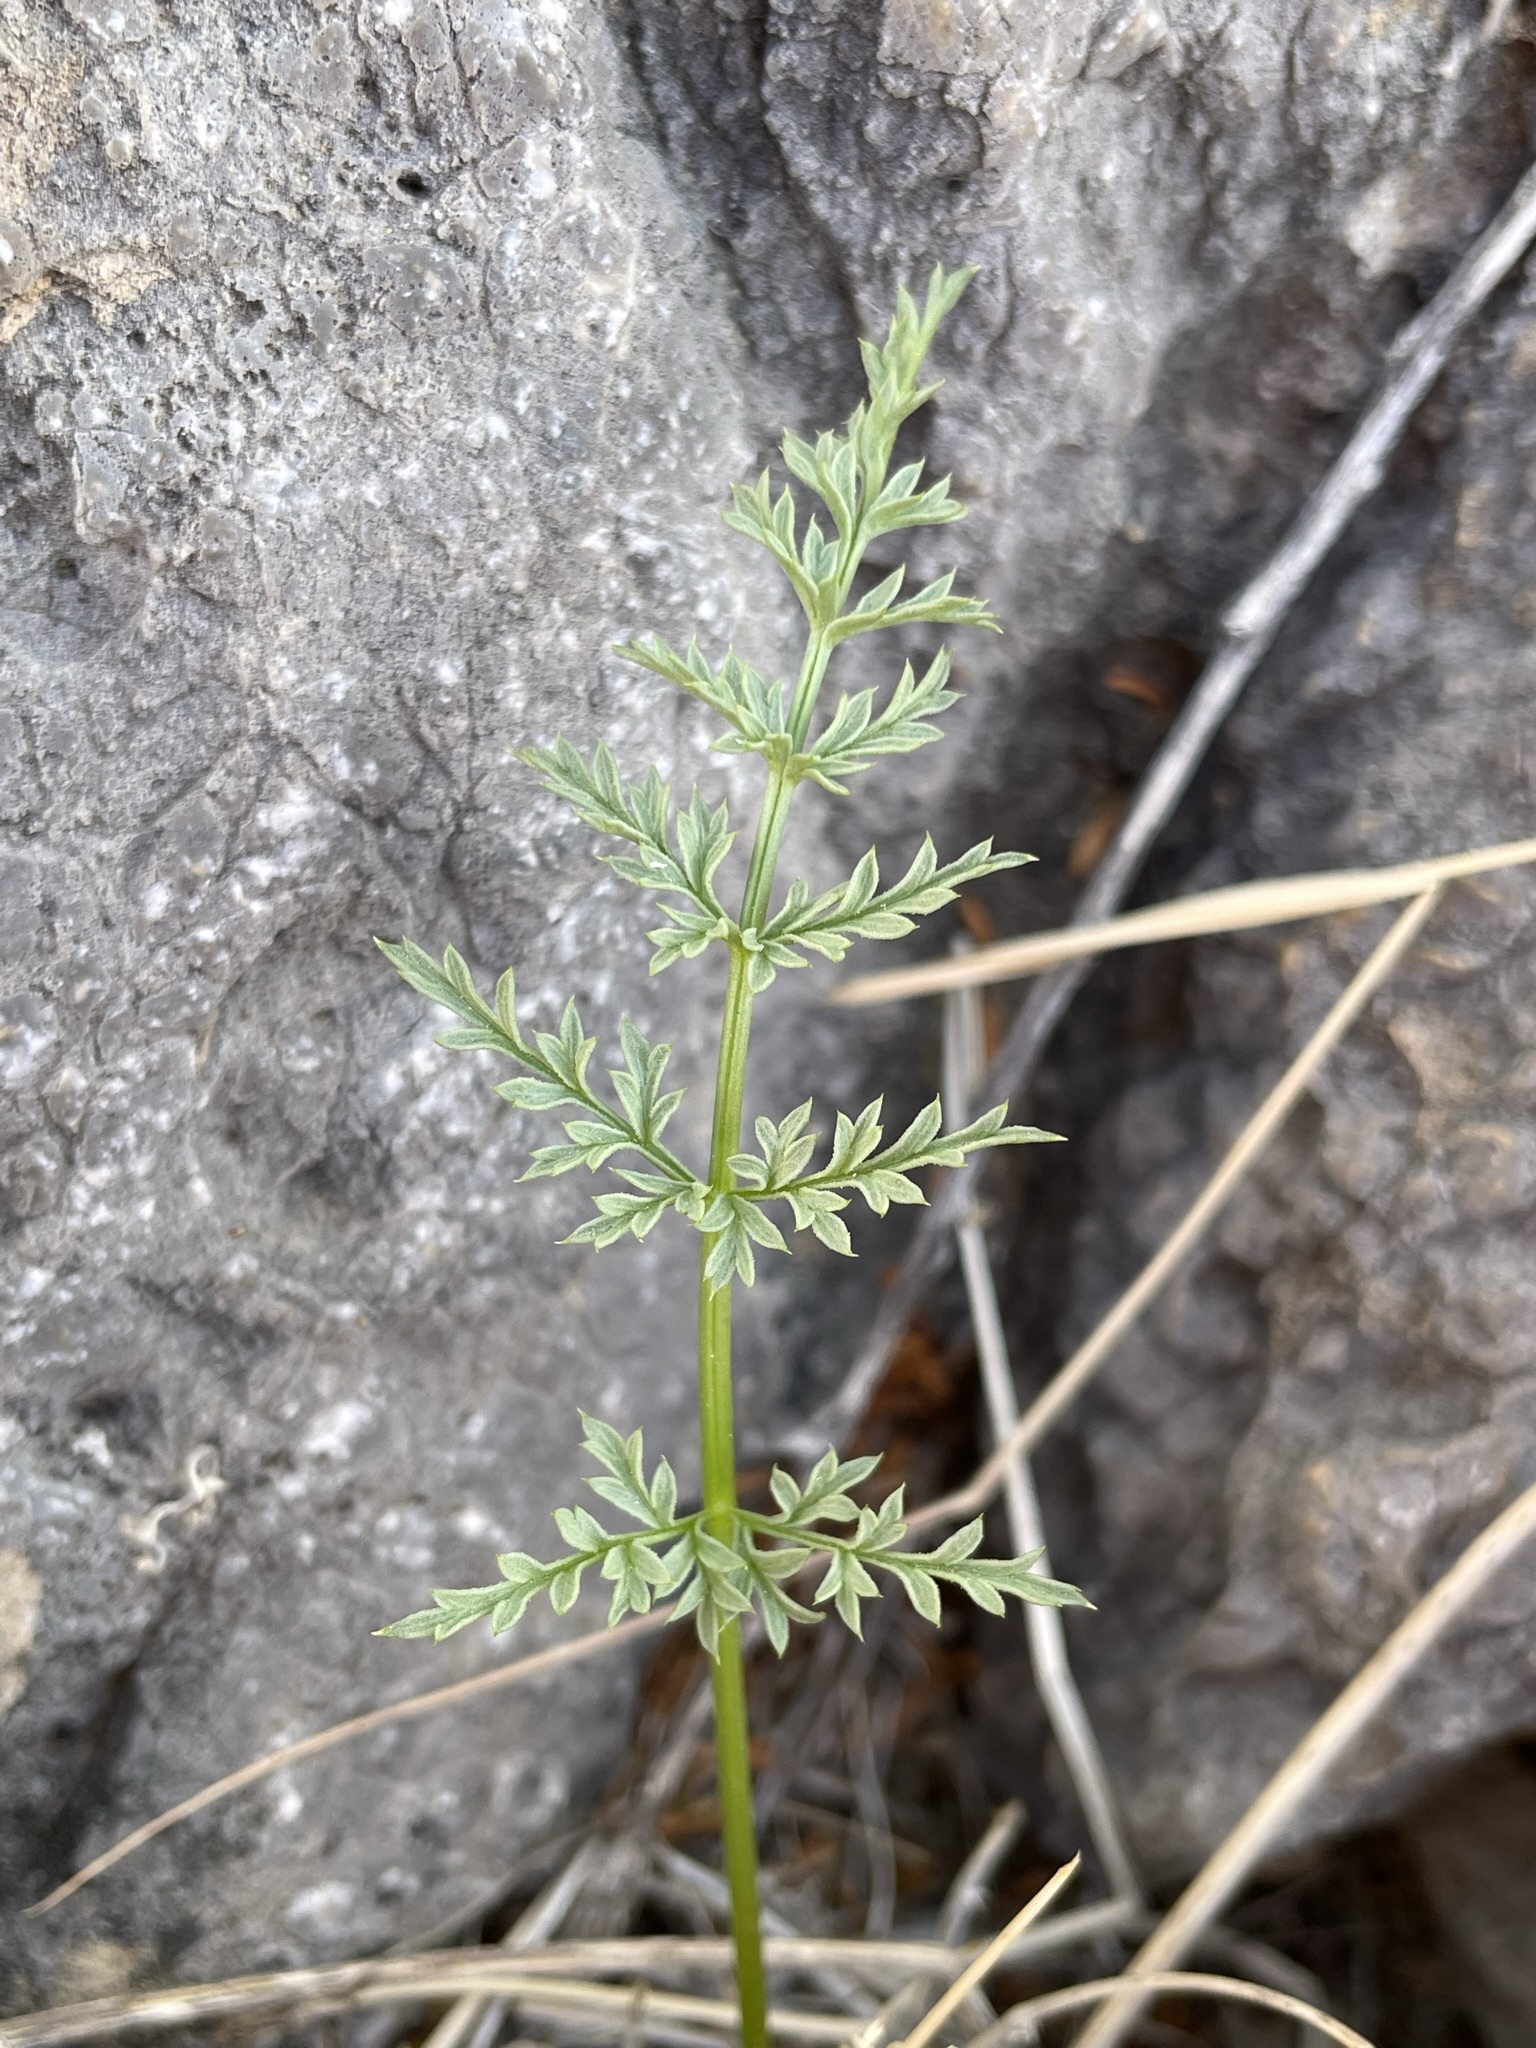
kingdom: Plantae
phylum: Tracheophyta
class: Magnoliopsida
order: Apiales
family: Apiaceae
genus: Lomatium
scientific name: Lomatium parryi
